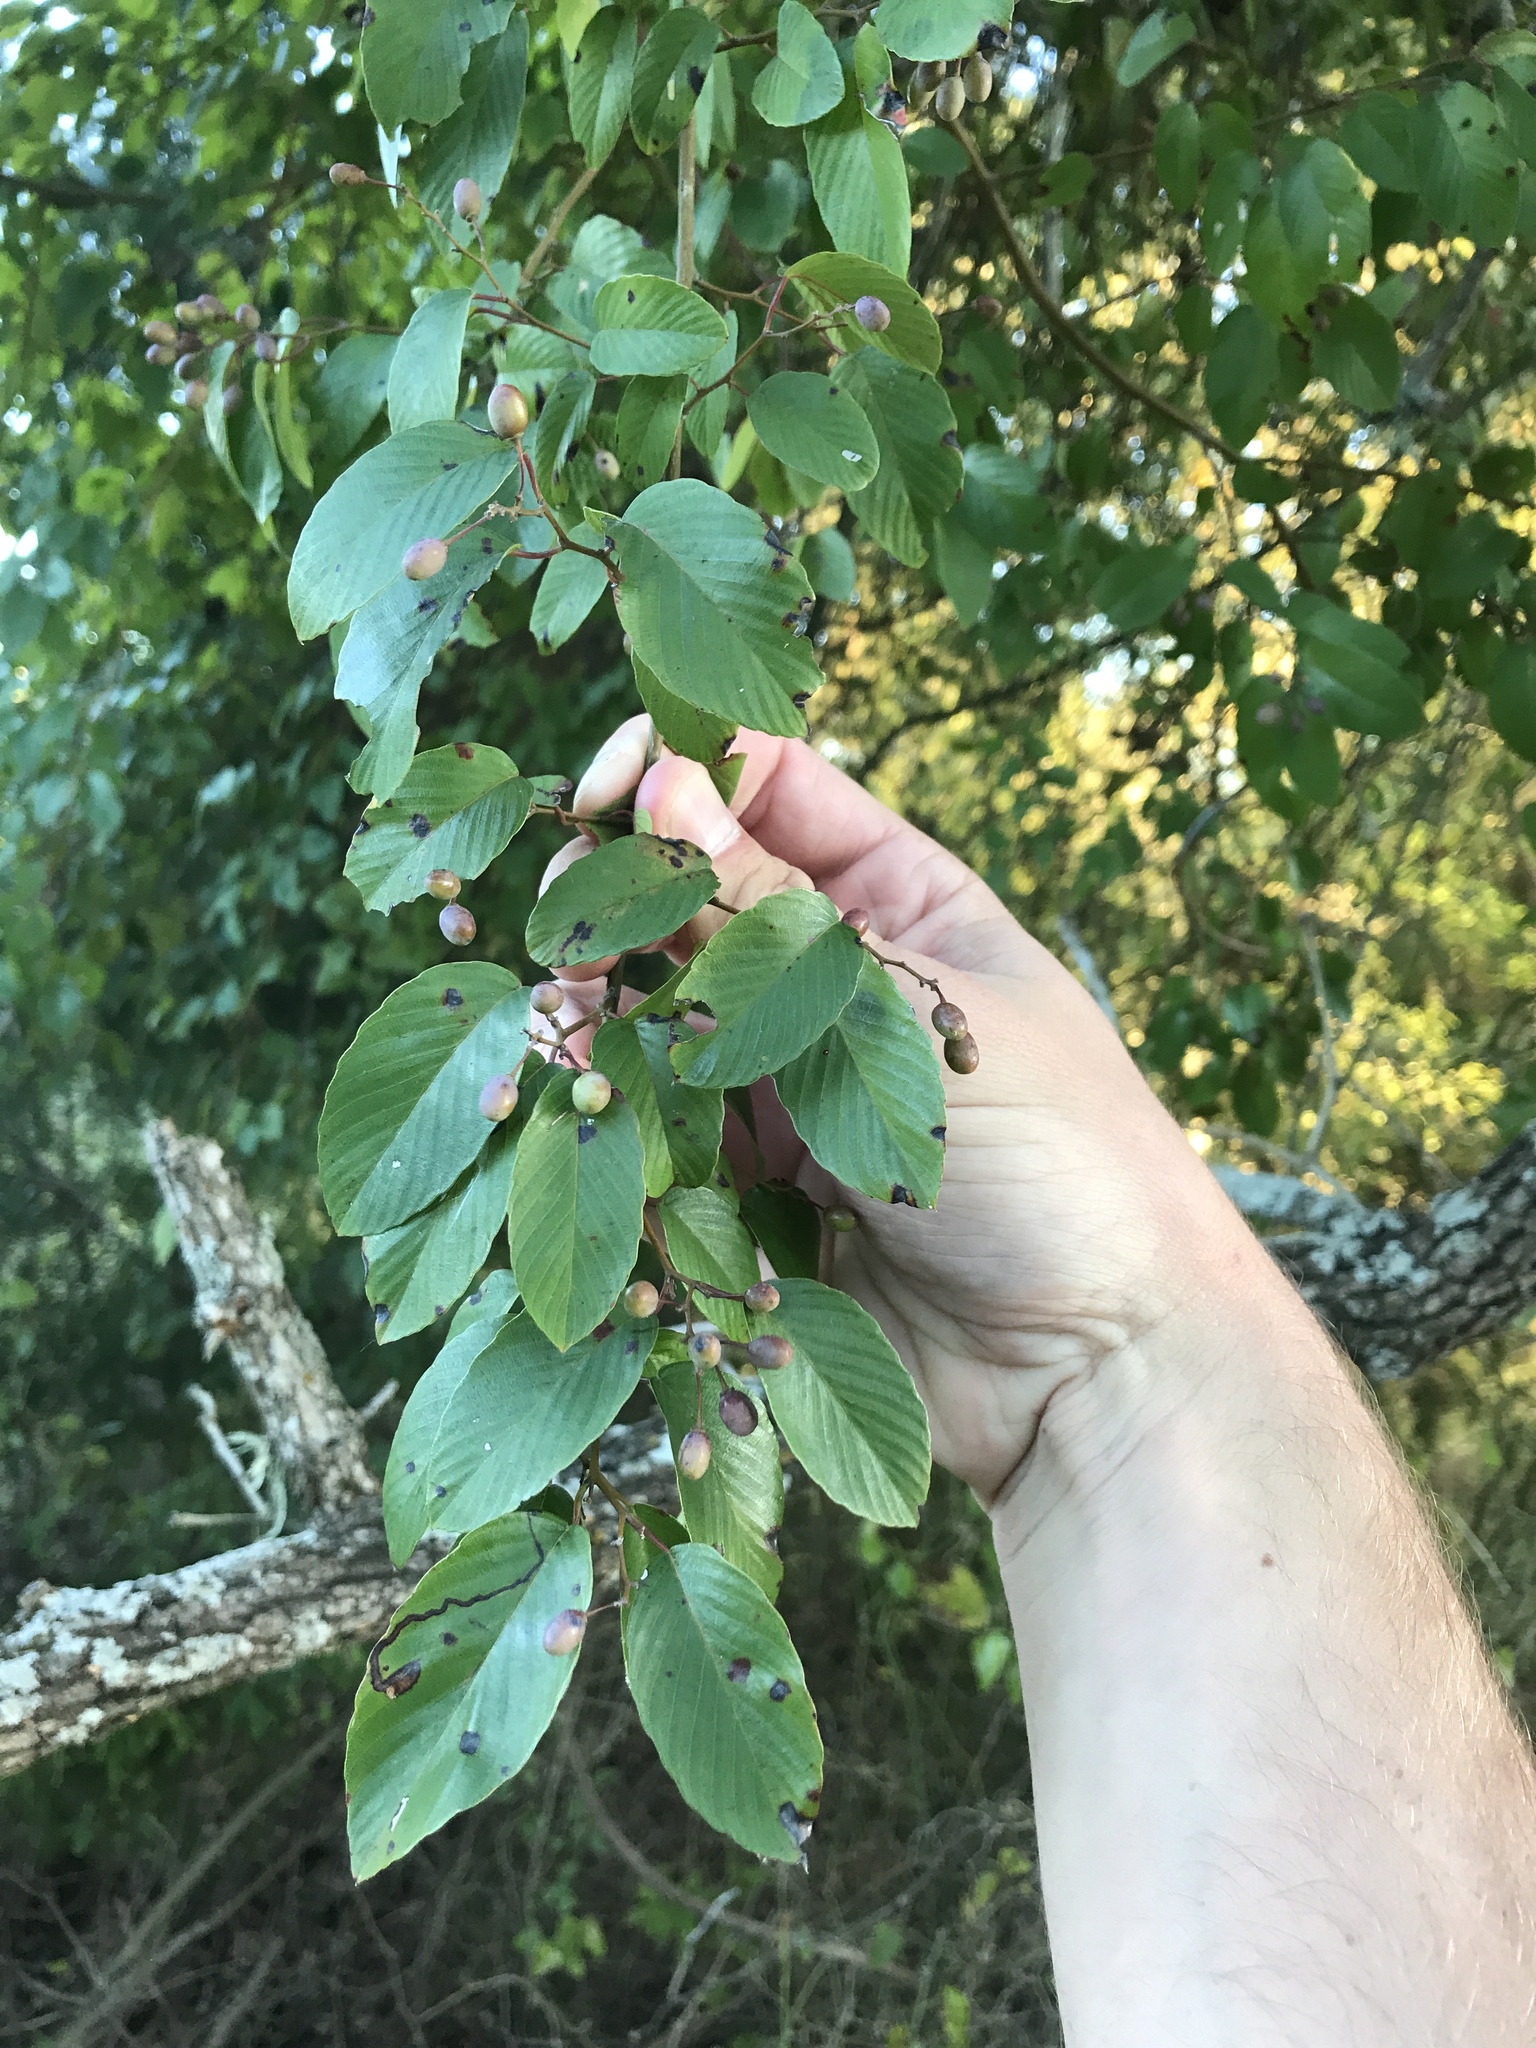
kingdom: Plantae
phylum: Tracheophyta
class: Magnoliopsida
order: Rosales
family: Rhamnaceae
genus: Berchemia
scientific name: Berchemia scandens
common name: Supplejack
